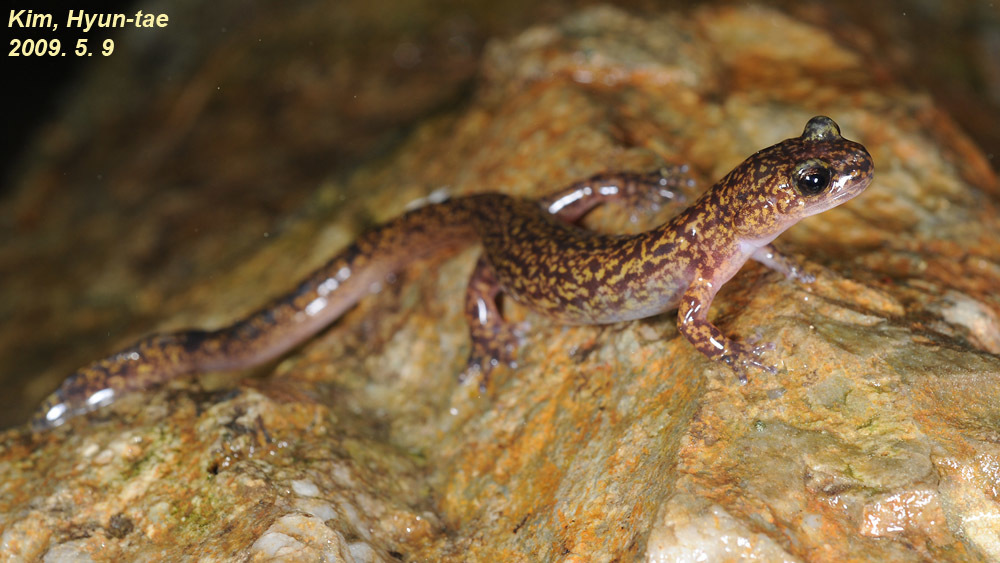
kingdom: Animalia
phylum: Chordata
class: Amphibia
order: Caudata
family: Hynobiidae
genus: Onychodactylus
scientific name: Onychodactylus koreanus
